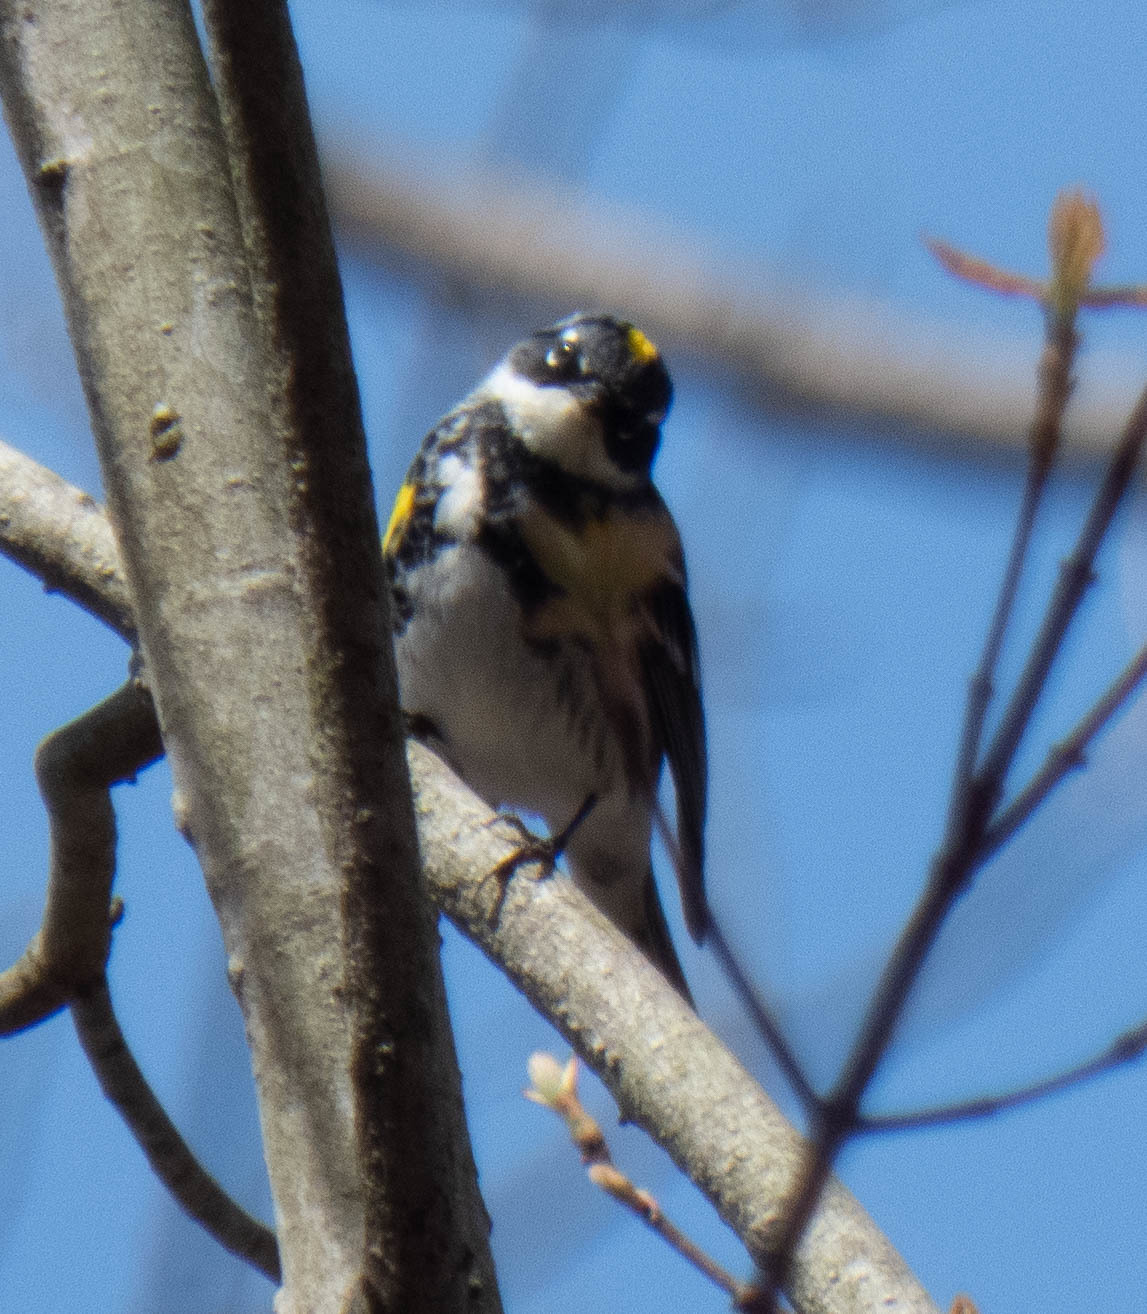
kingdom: Animalia
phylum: Chordata
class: Aves
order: Passeriformes
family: Parulidae
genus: Setophaga
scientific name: Setophaga coronata
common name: Myrtle warbler
